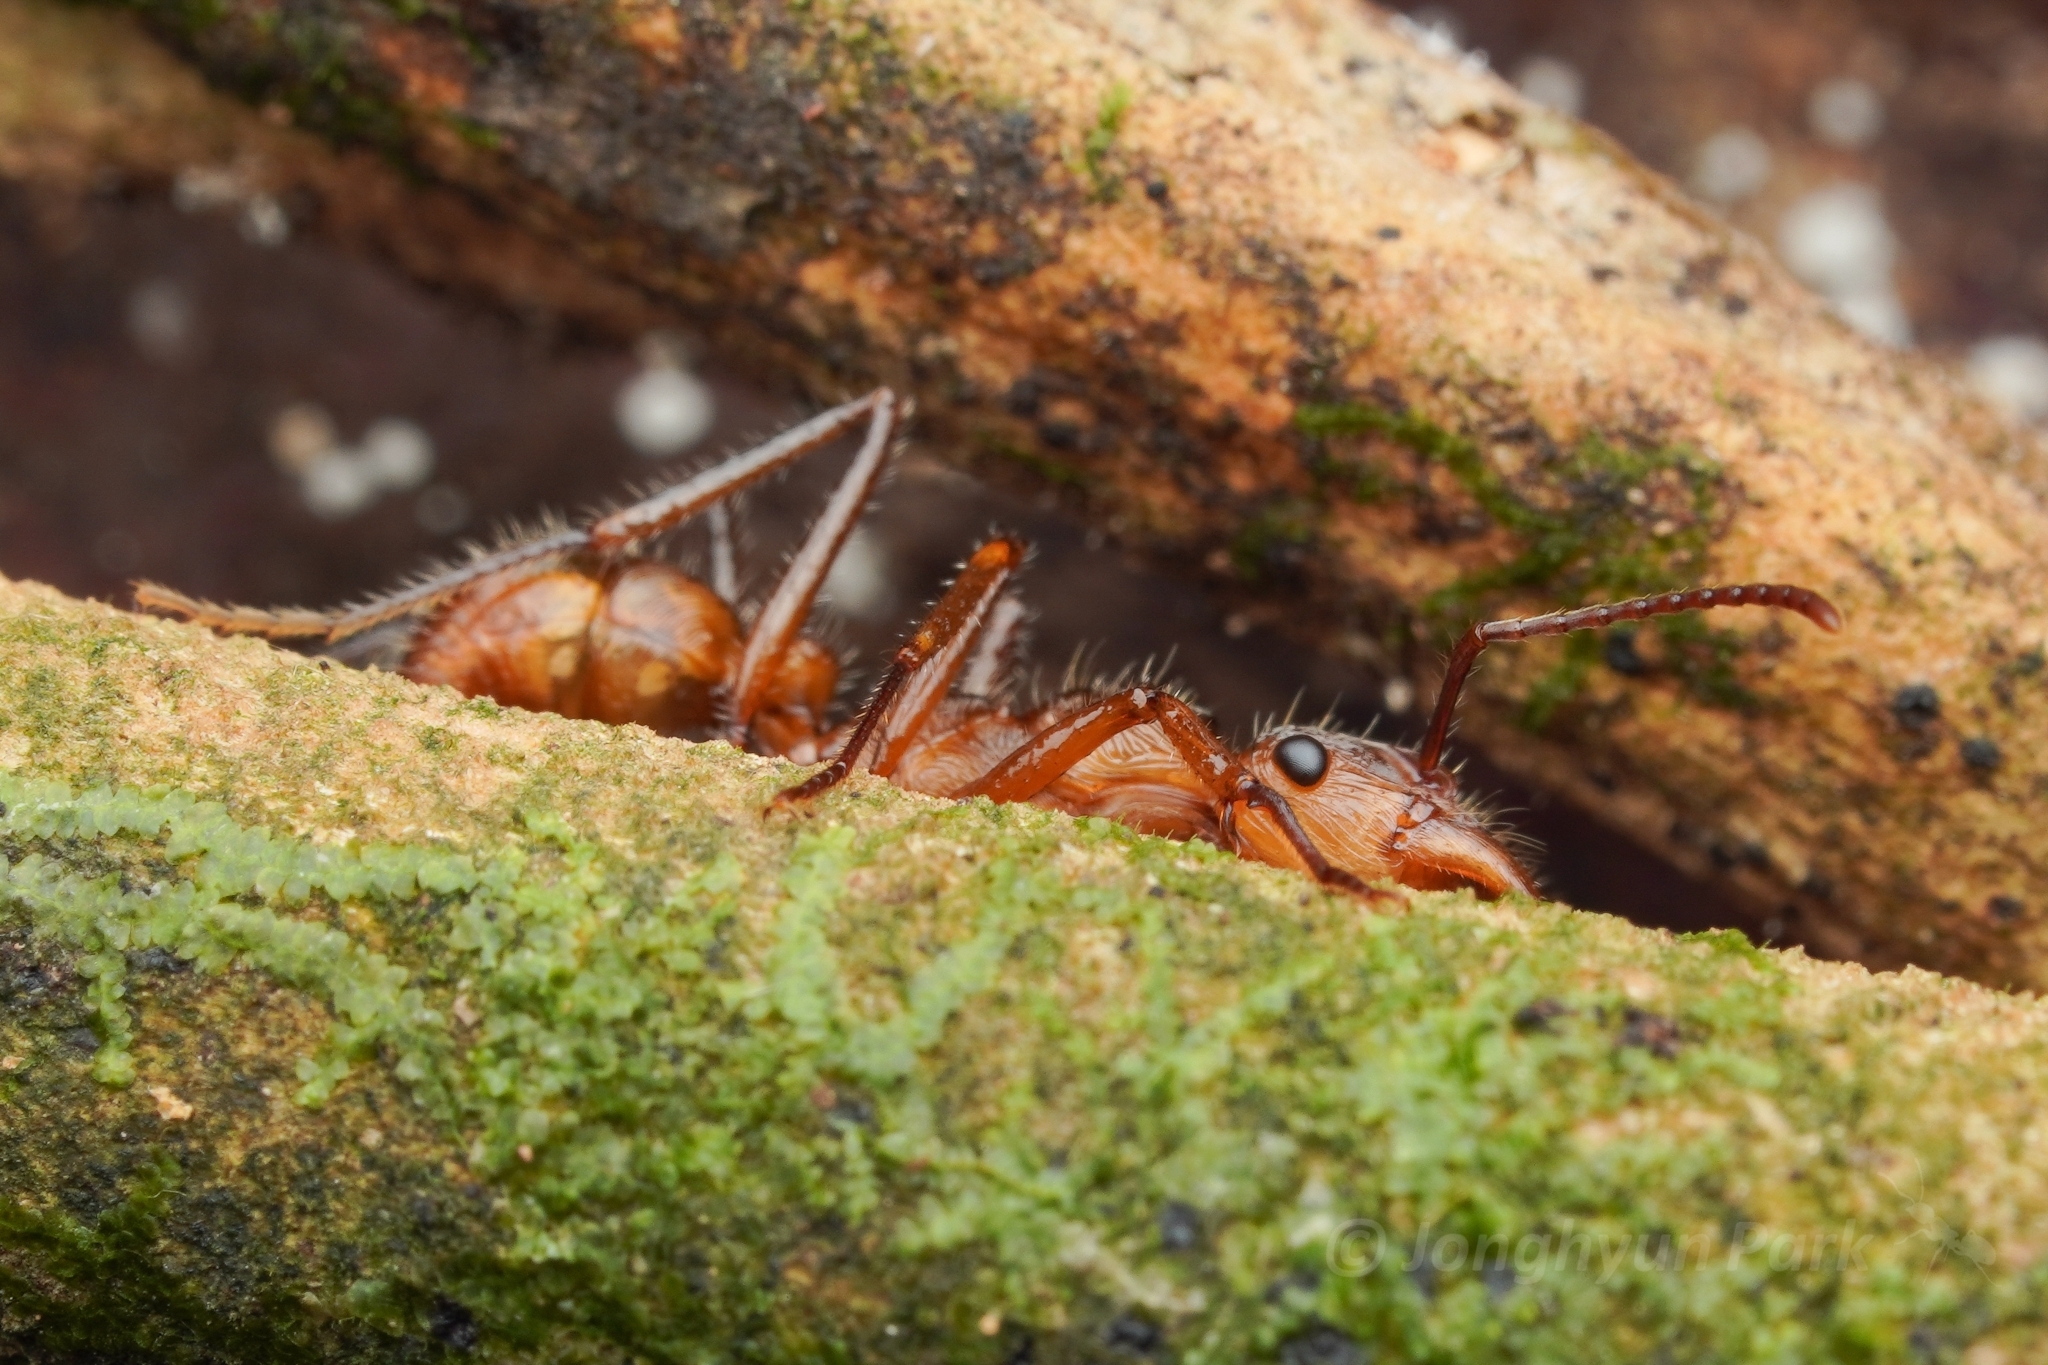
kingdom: Animalia
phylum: Arthropoda
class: Insecta
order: Hymenoptera
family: Formicidae
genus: Ectatomma
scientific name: Ectatomma tuberculatum
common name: Ant
